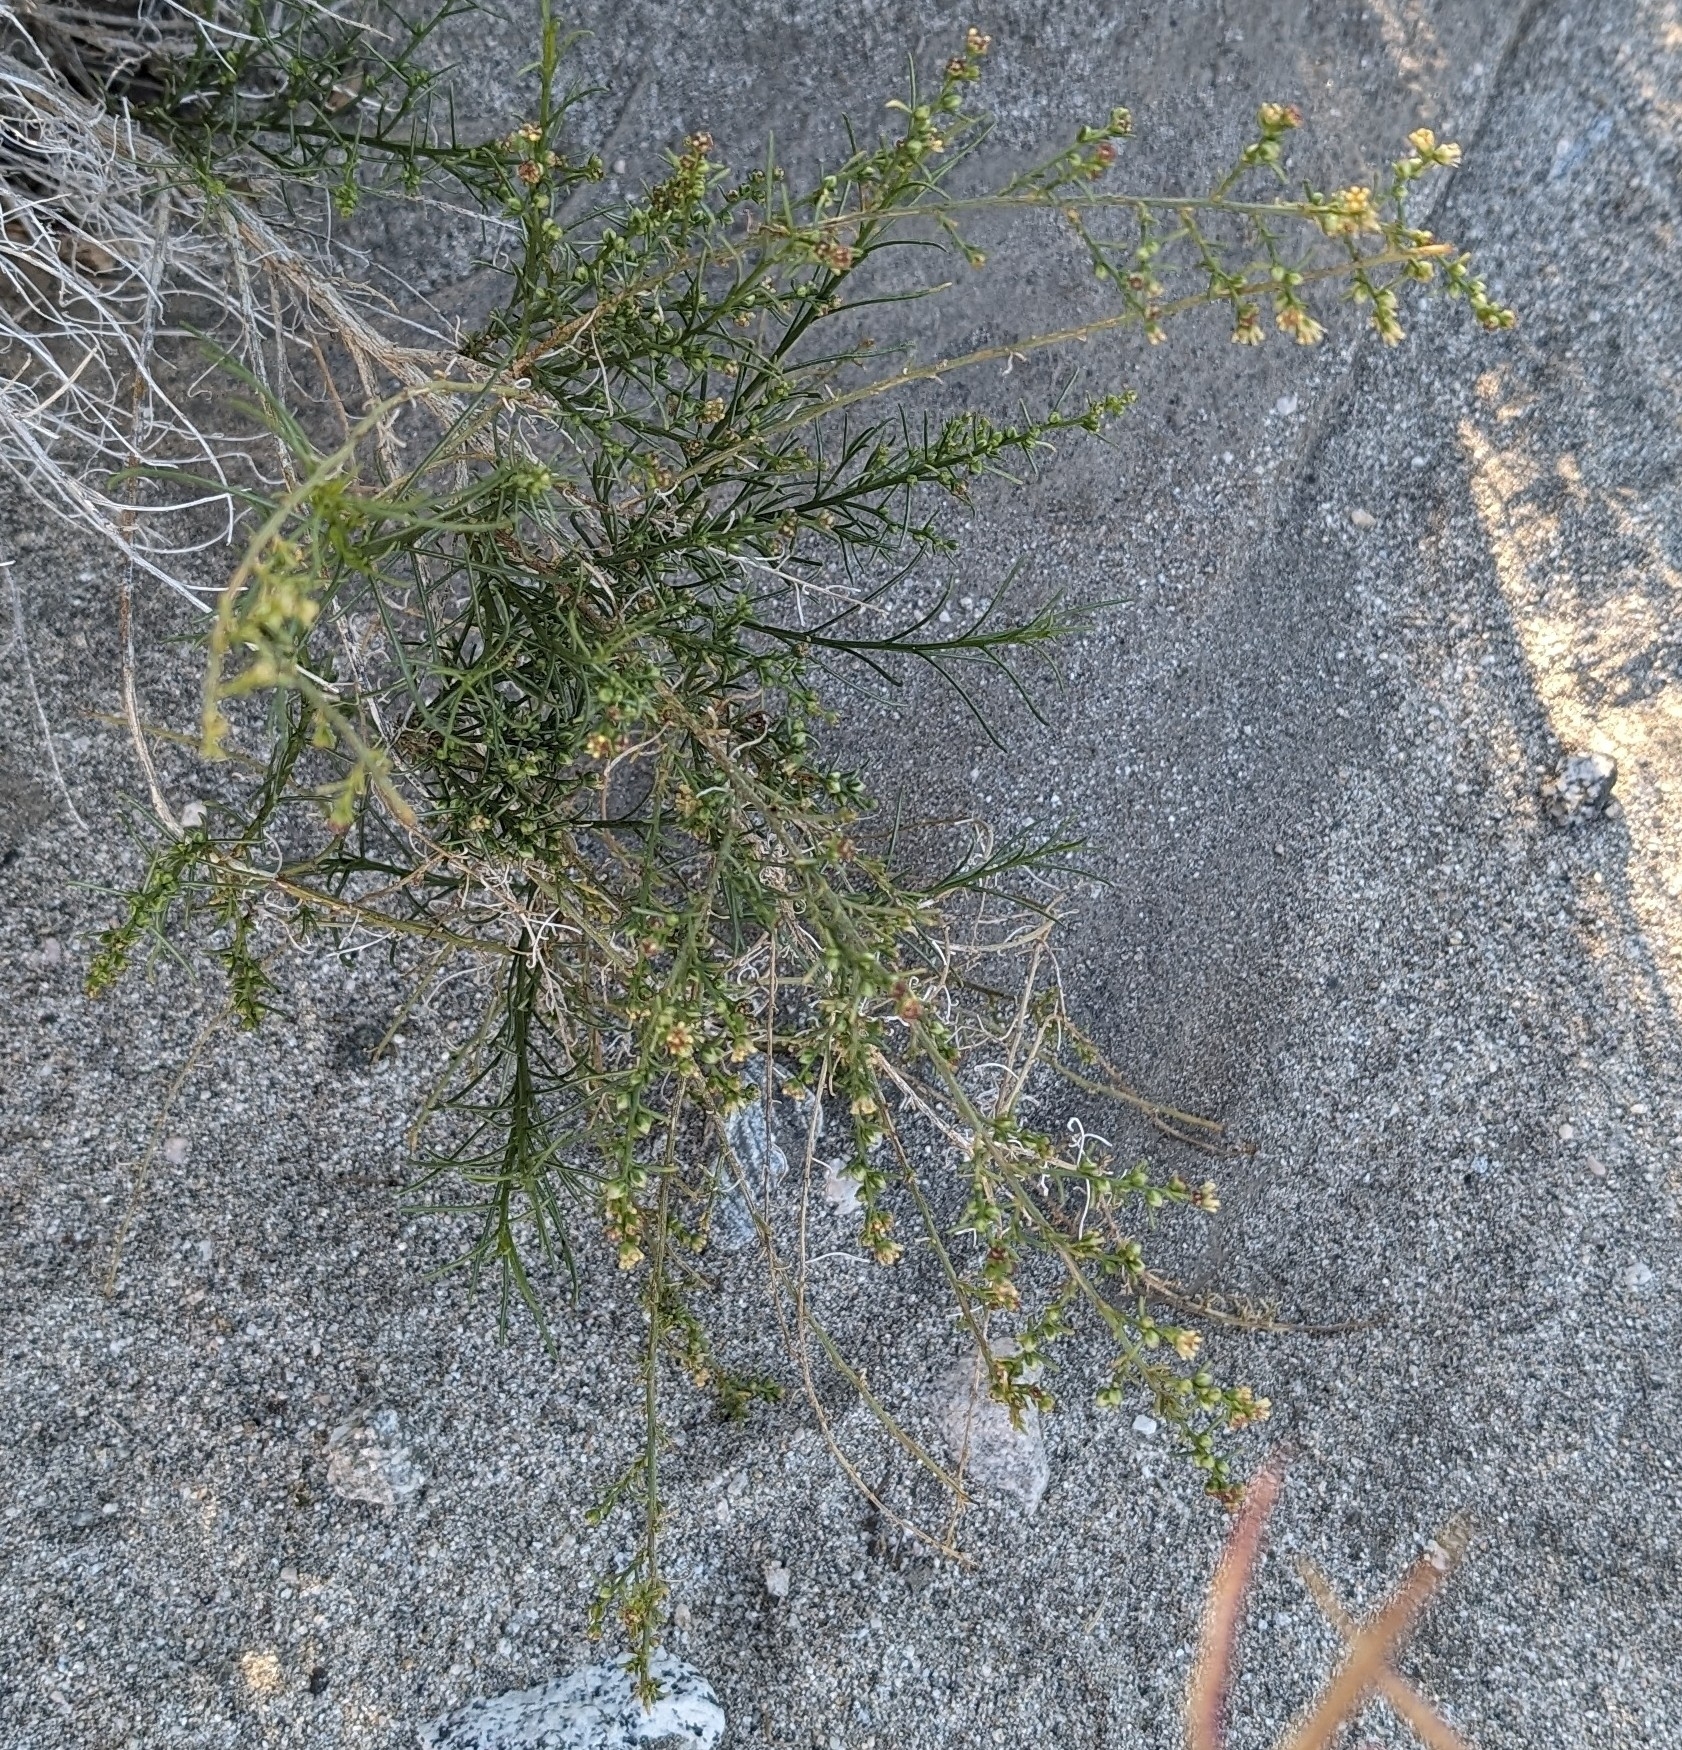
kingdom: Plantae
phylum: Tracheophyta
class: Magnoliopsida
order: Asterales
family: Asteraceae
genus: Ambrosia
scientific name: Ambrosia salsola
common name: Burrobrush
